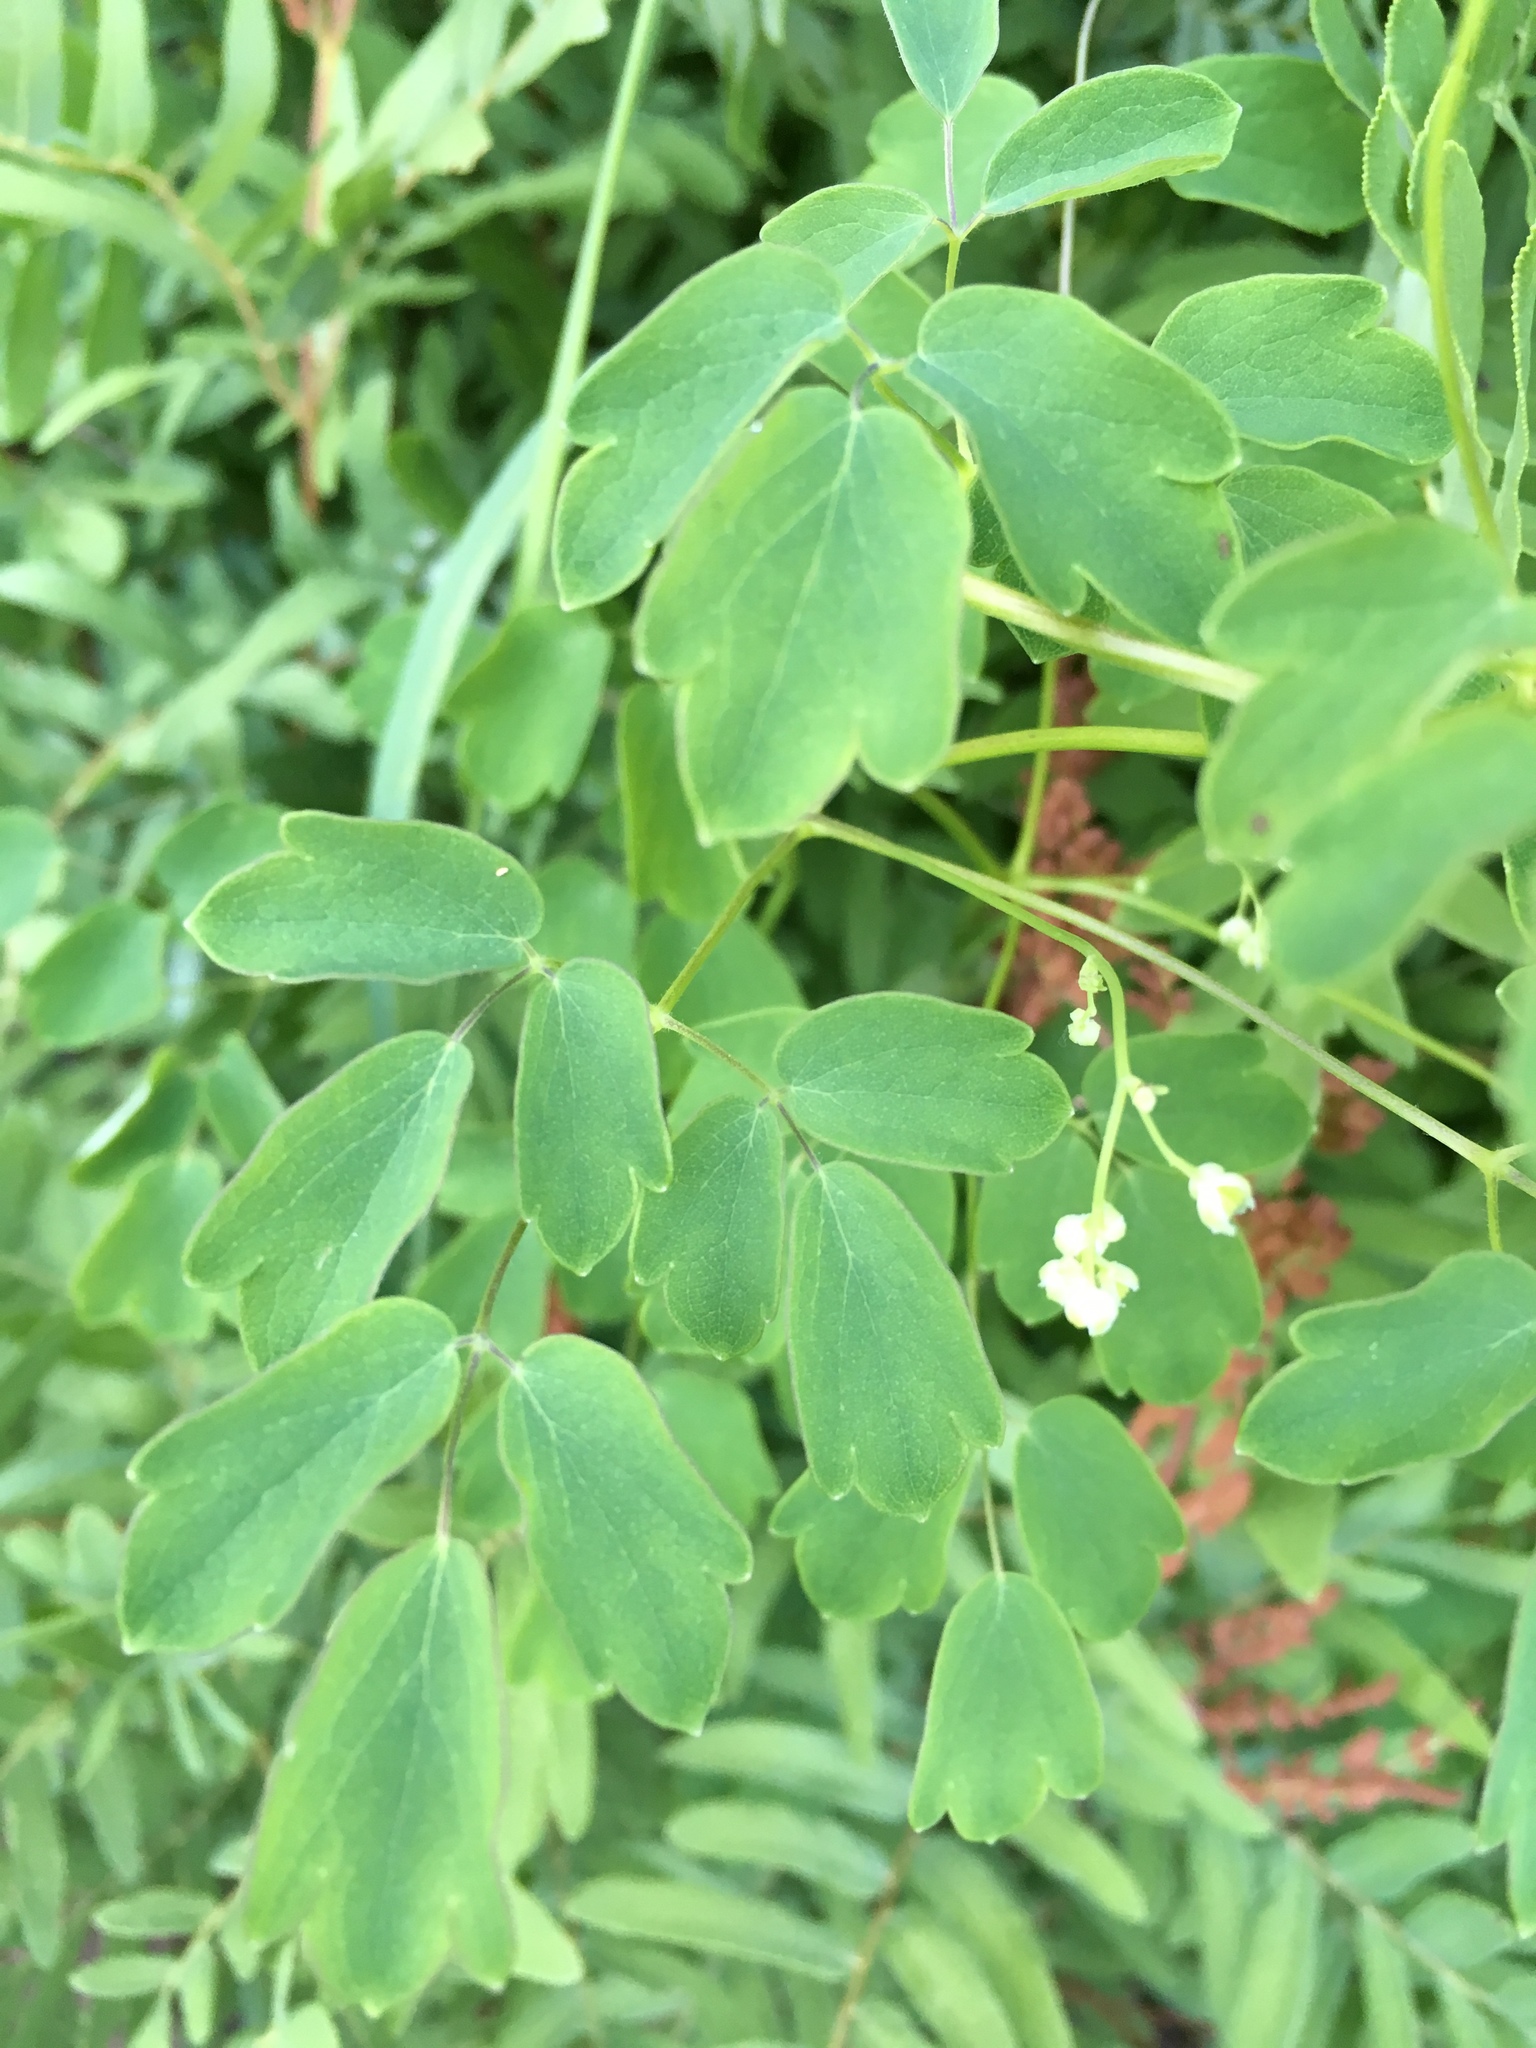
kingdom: Plantae
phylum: Tracheophyta
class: Magnoliopsida
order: Ranunculales
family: Ranunculaceae
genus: Thalictrum
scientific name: Thalictrum pubescens
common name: King-of-the-meadow
